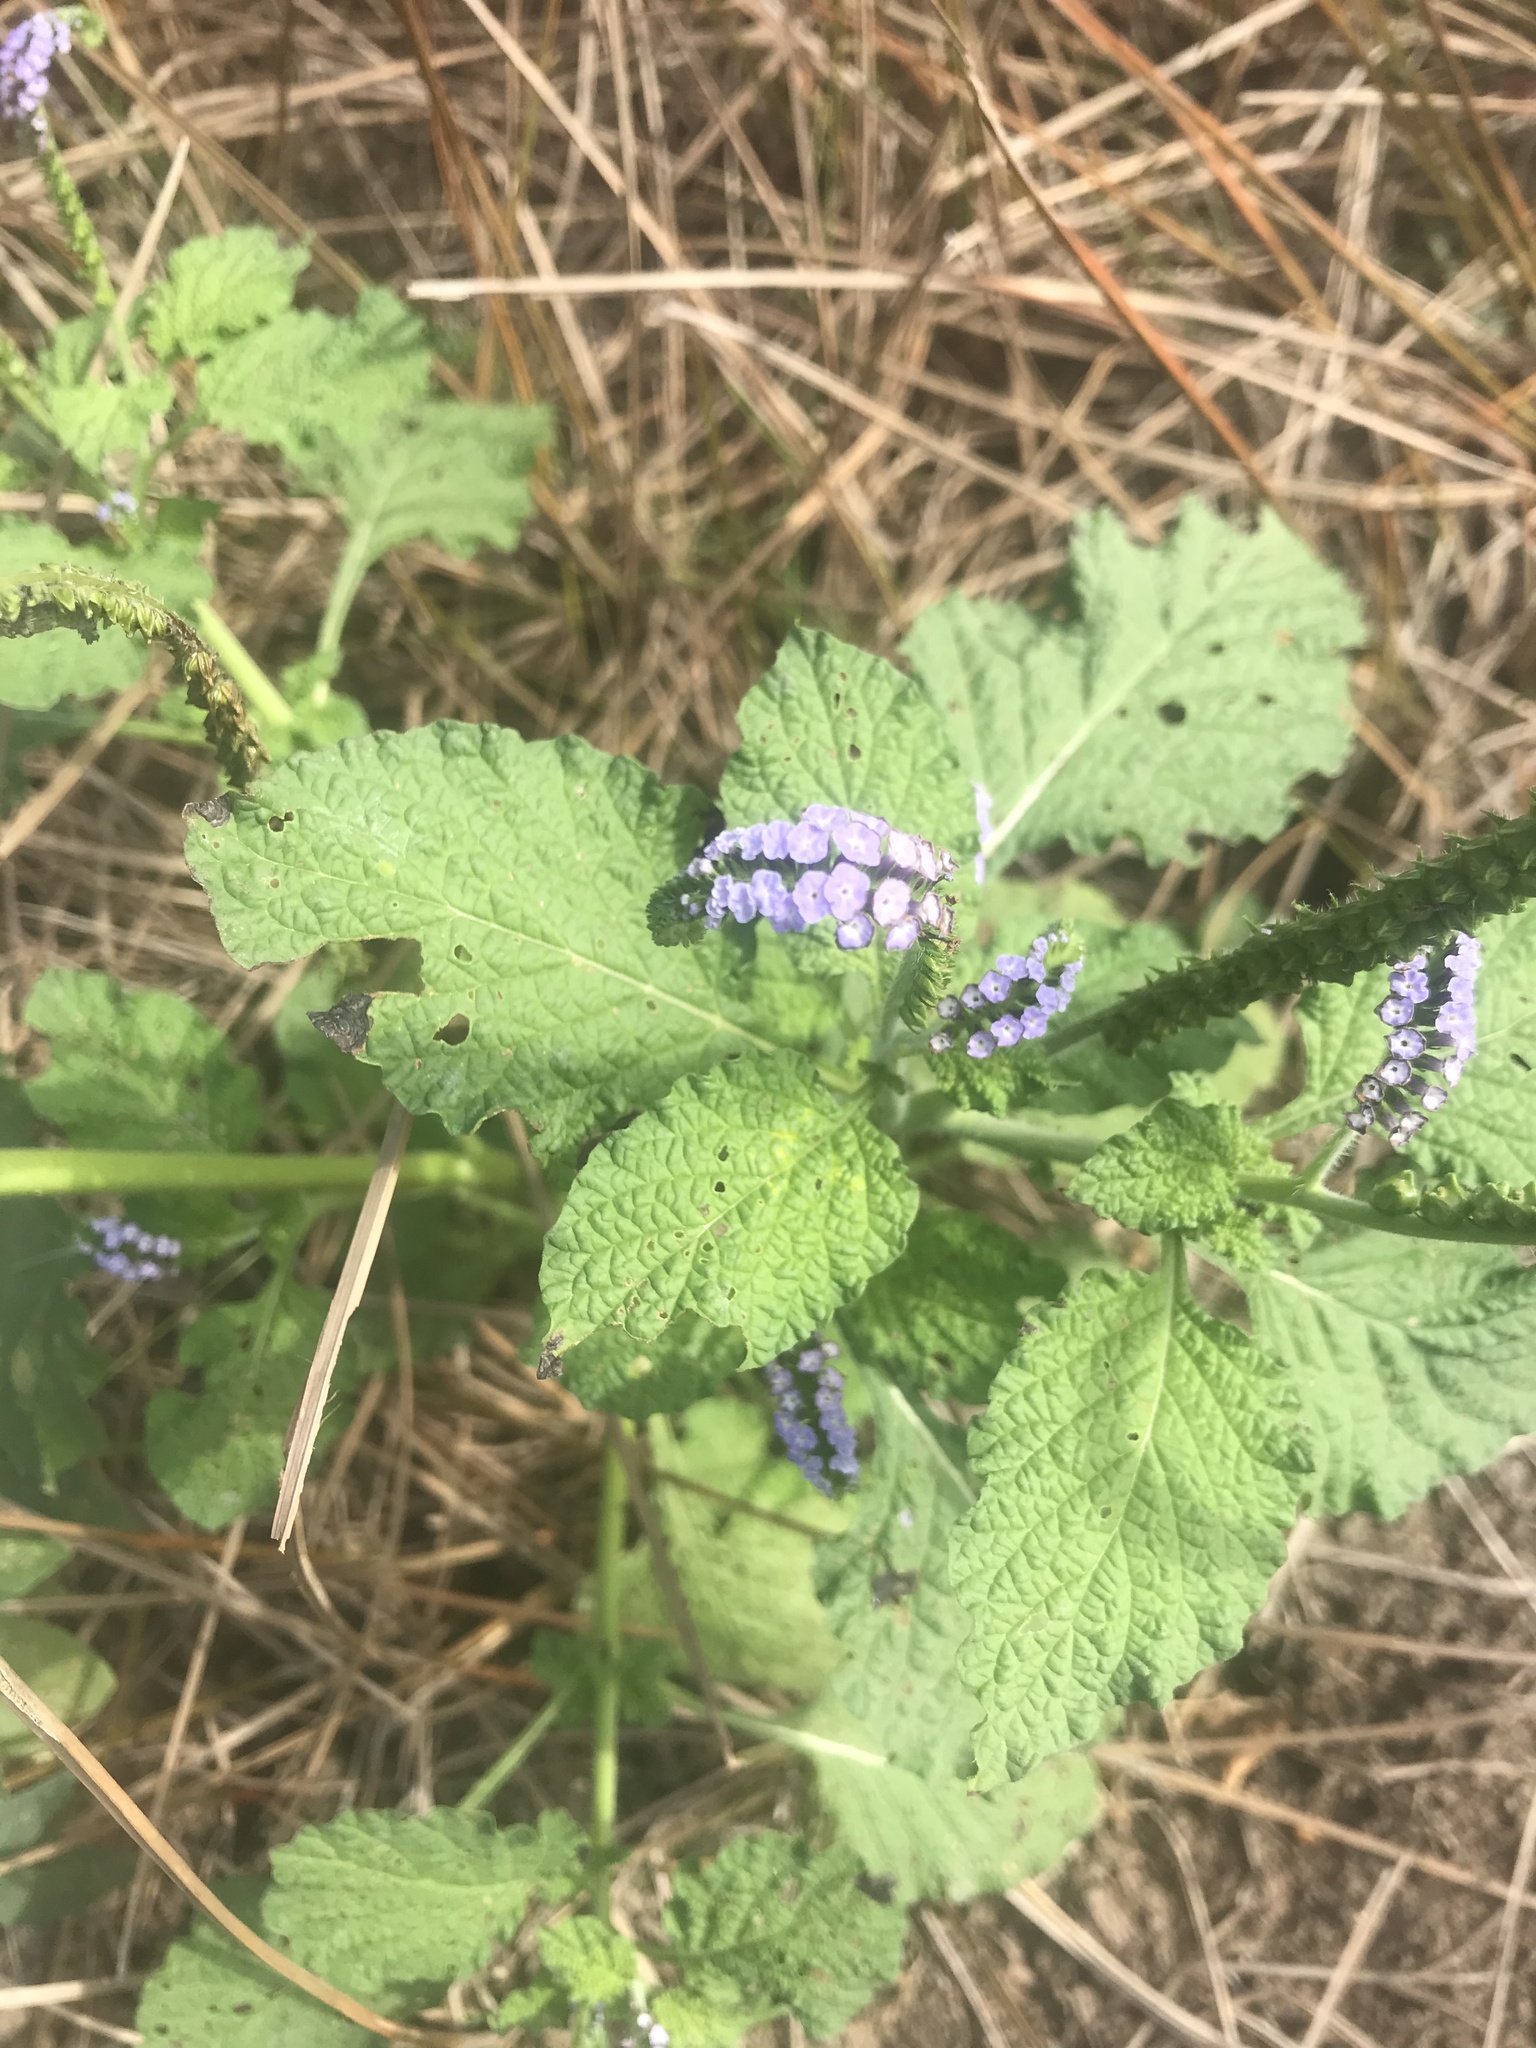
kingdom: Plantae
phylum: Tracheophyta
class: Magnoliopsida
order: Boraginales
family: Heliotropiaceae
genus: Heliotropium
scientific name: Heliotropium indicum
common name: Indian heliotrope
